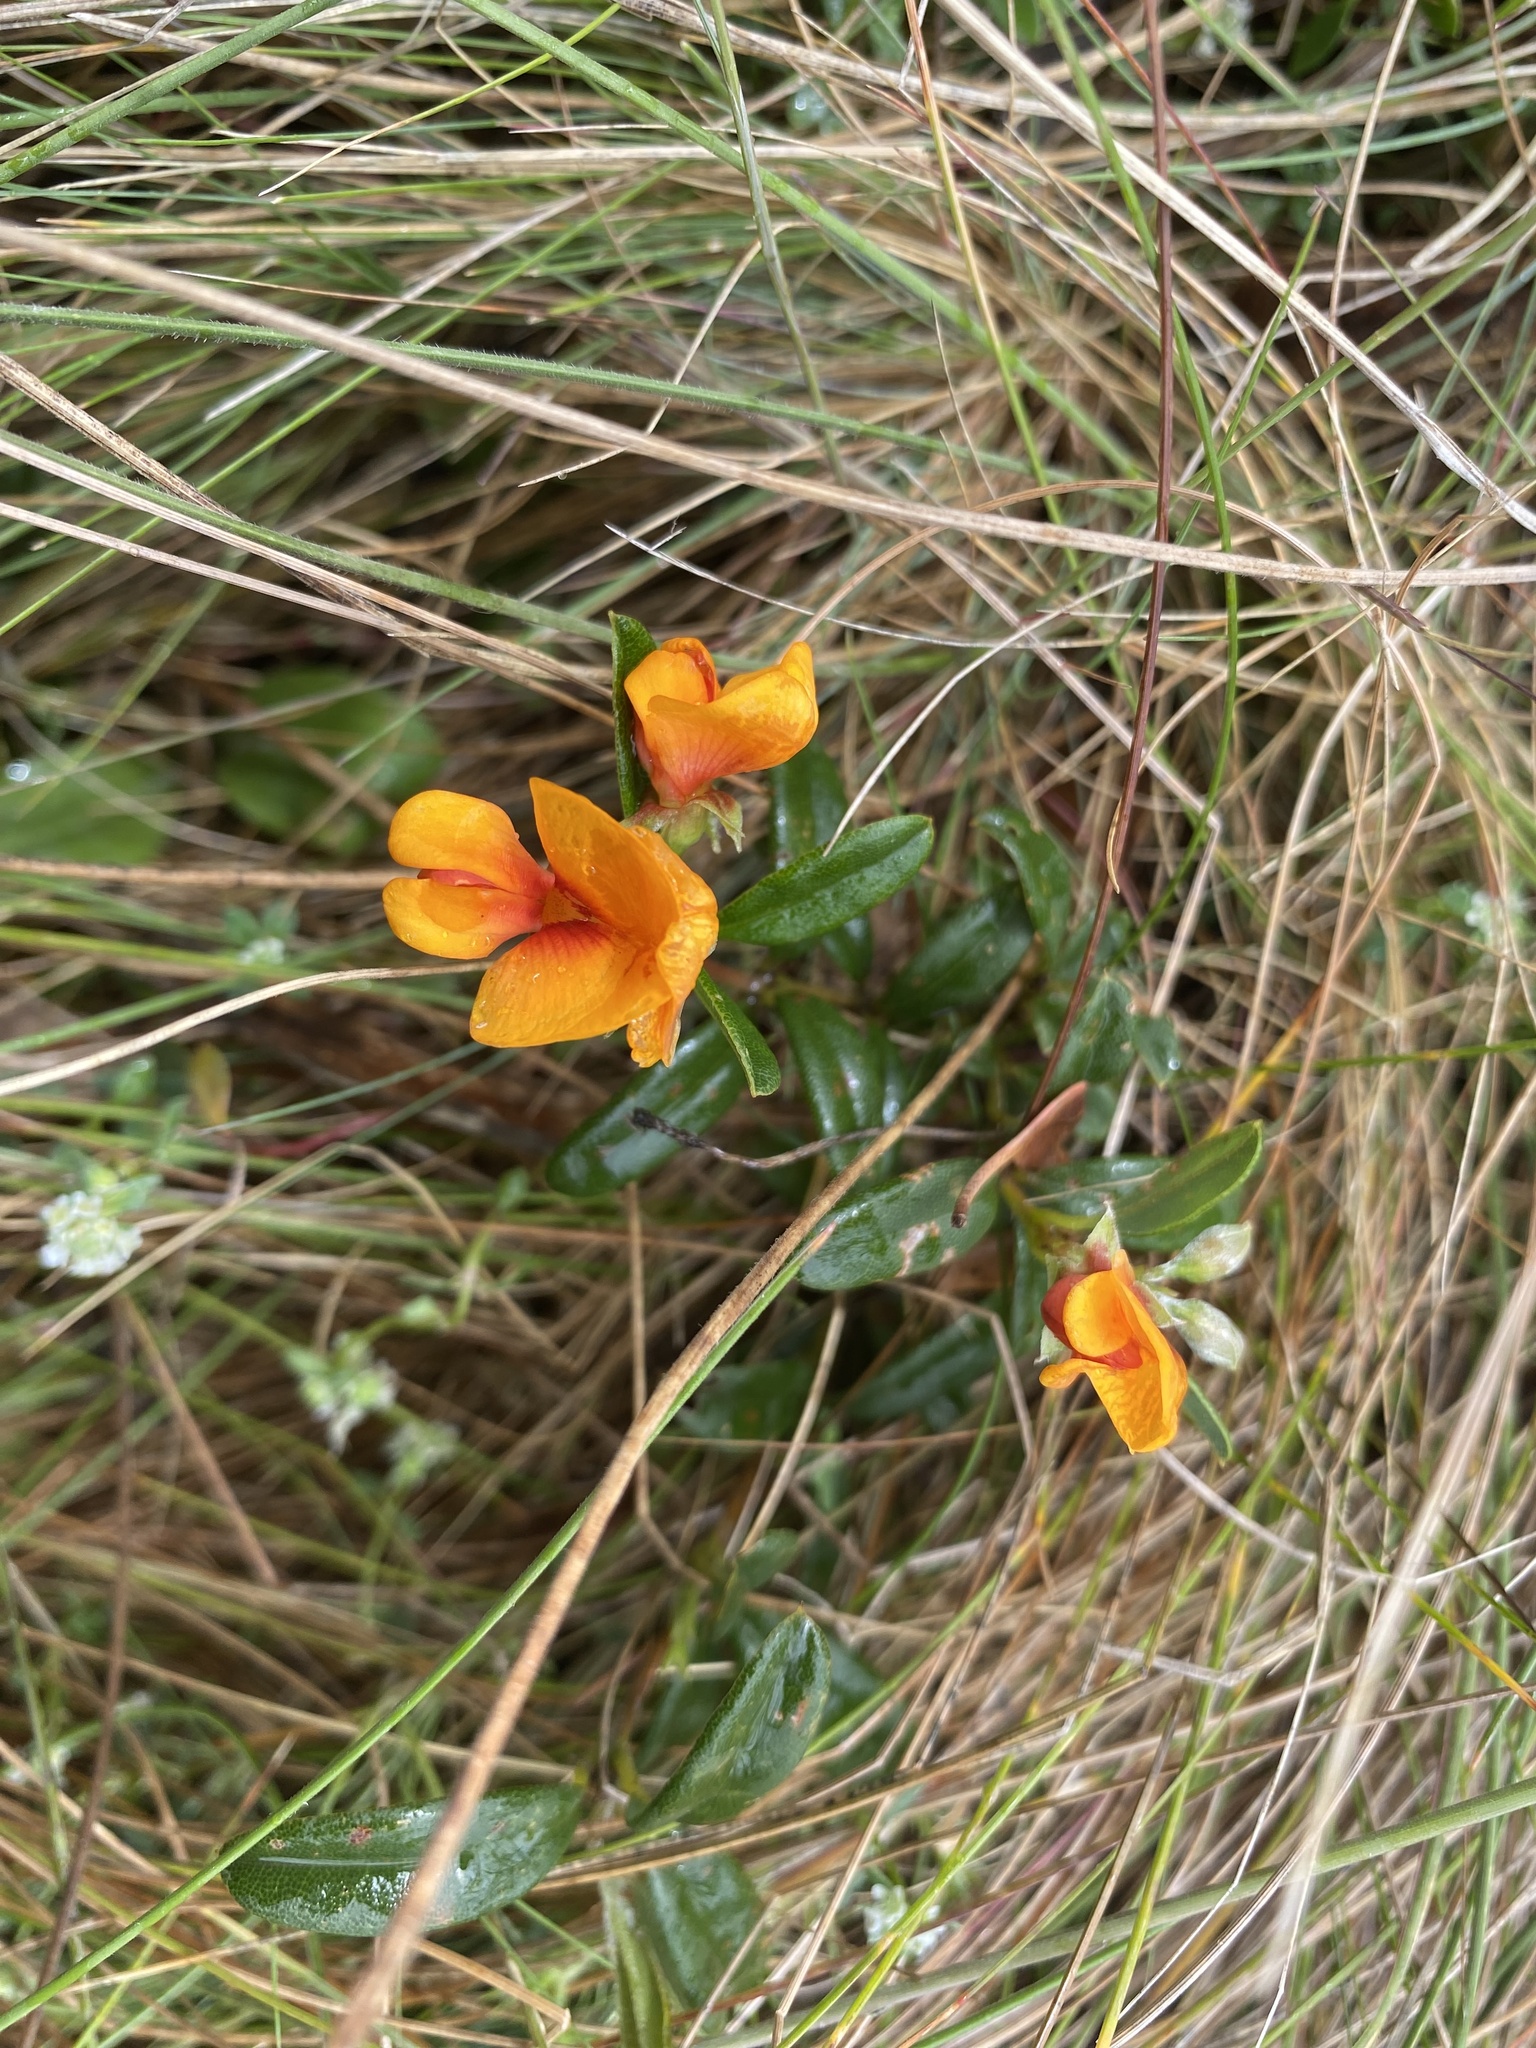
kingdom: Plantae
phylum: Tracheophyta
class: Magnoliopsida
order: Fabales
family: Fabaceae
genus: Podolobium
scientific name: Podolobium alpestre
